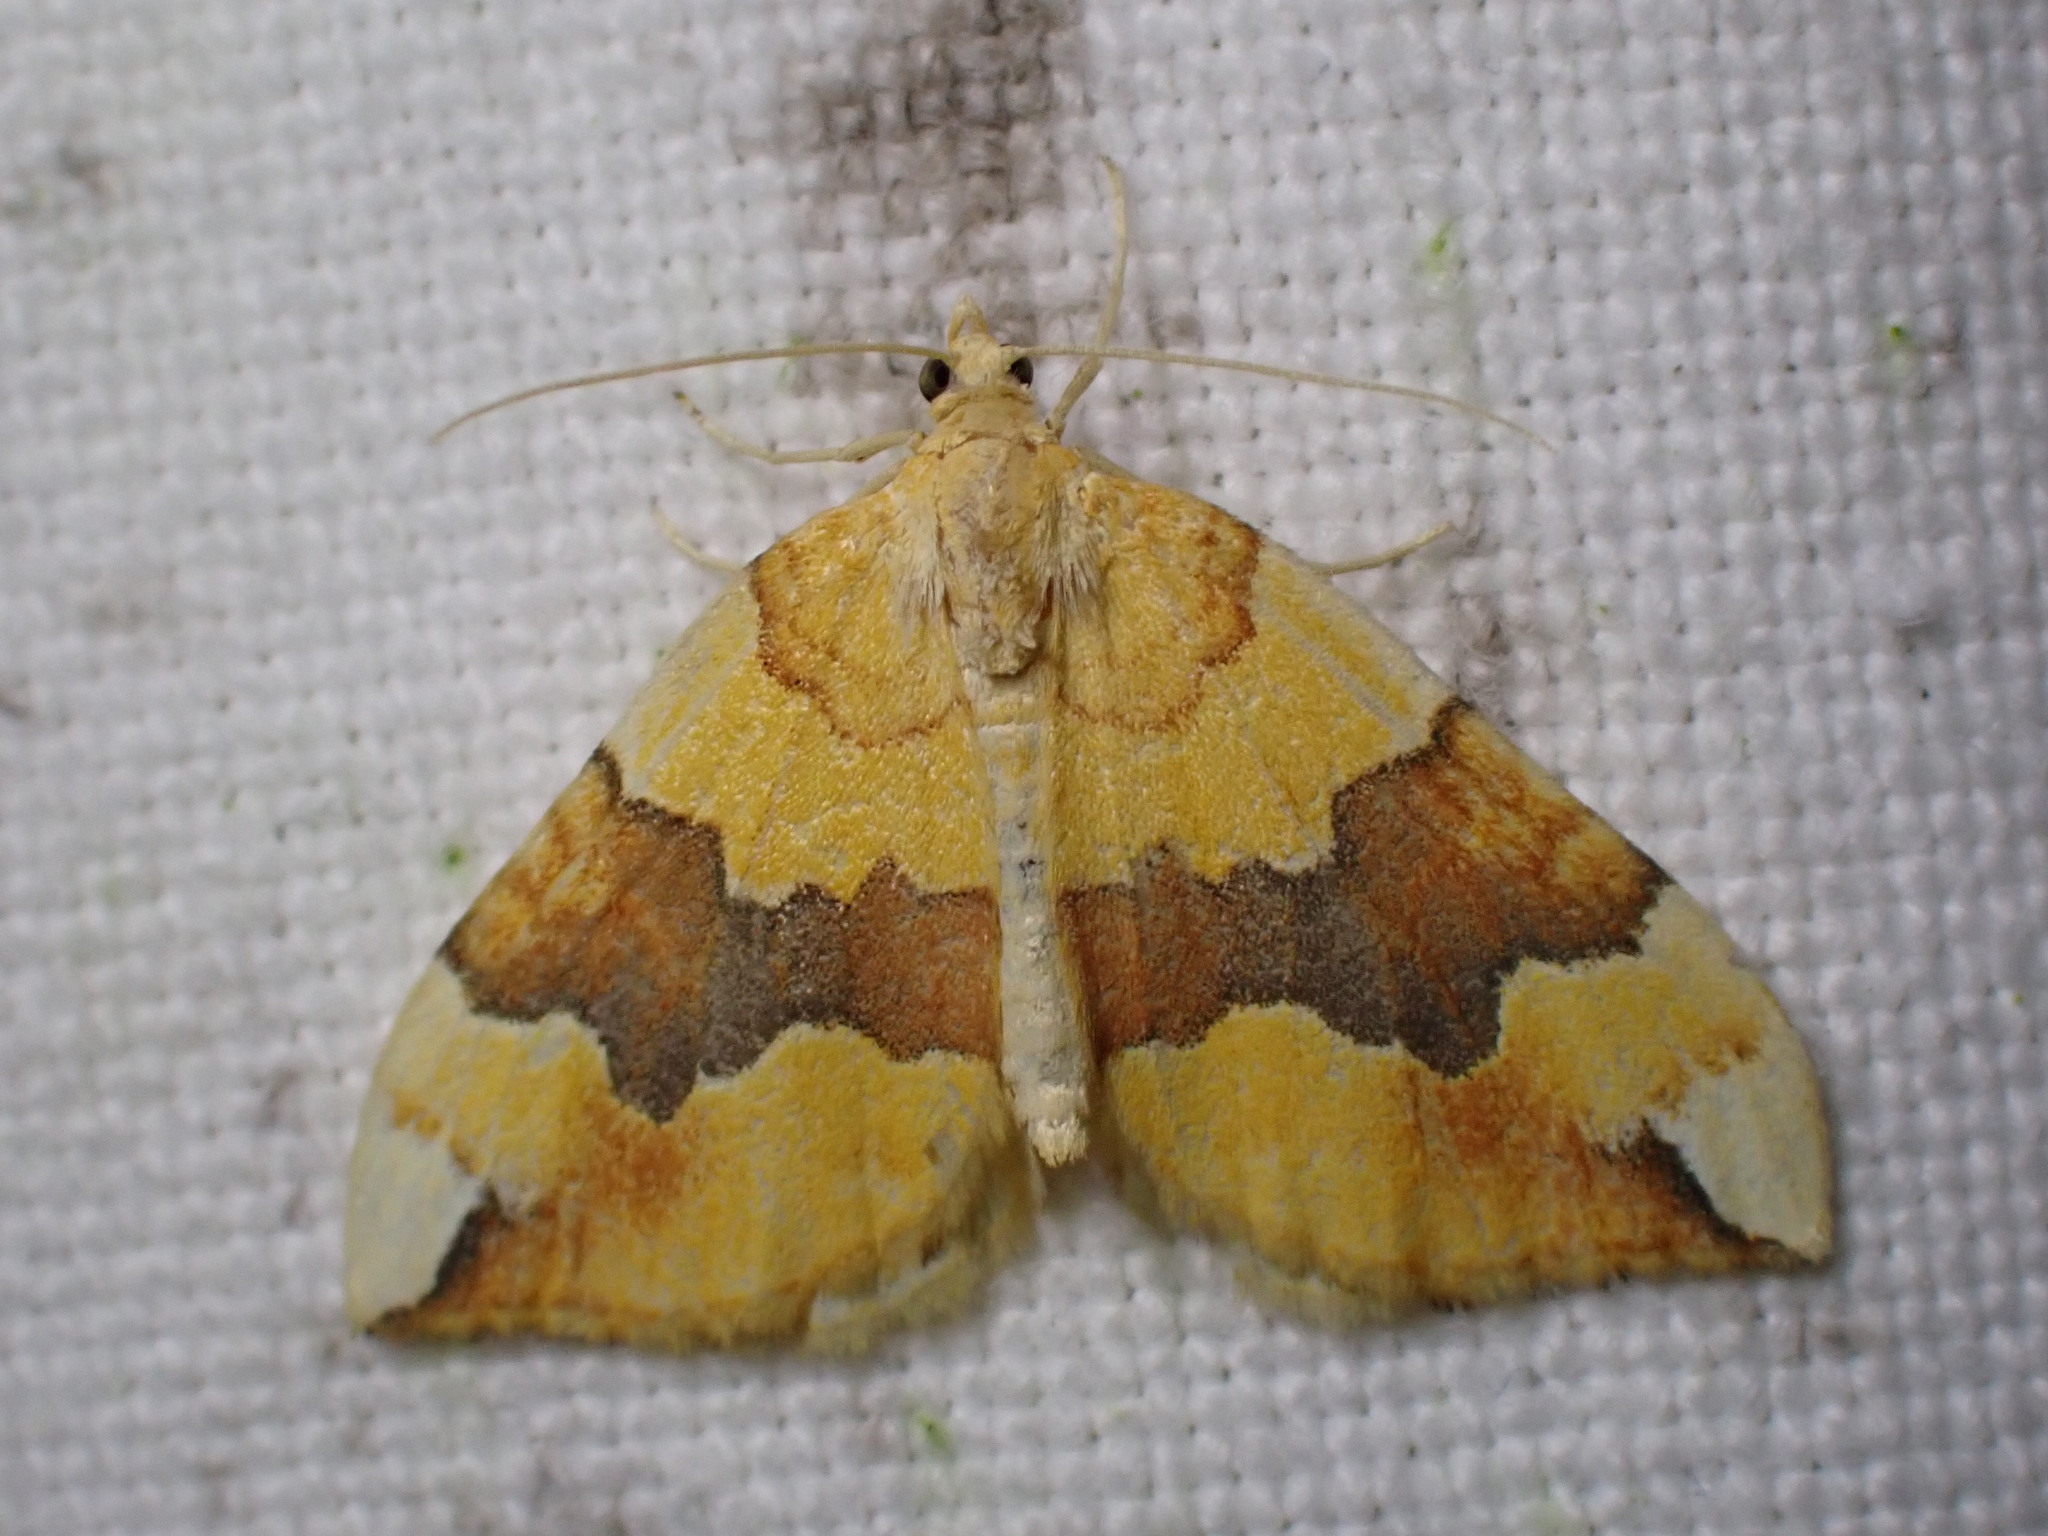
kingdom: Animalia
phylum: Arthropoda
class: Insecta
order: Lepidoptera
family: Geometridae
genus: Cidaria
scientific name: Cidaria fulvata
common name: Barred yellow
